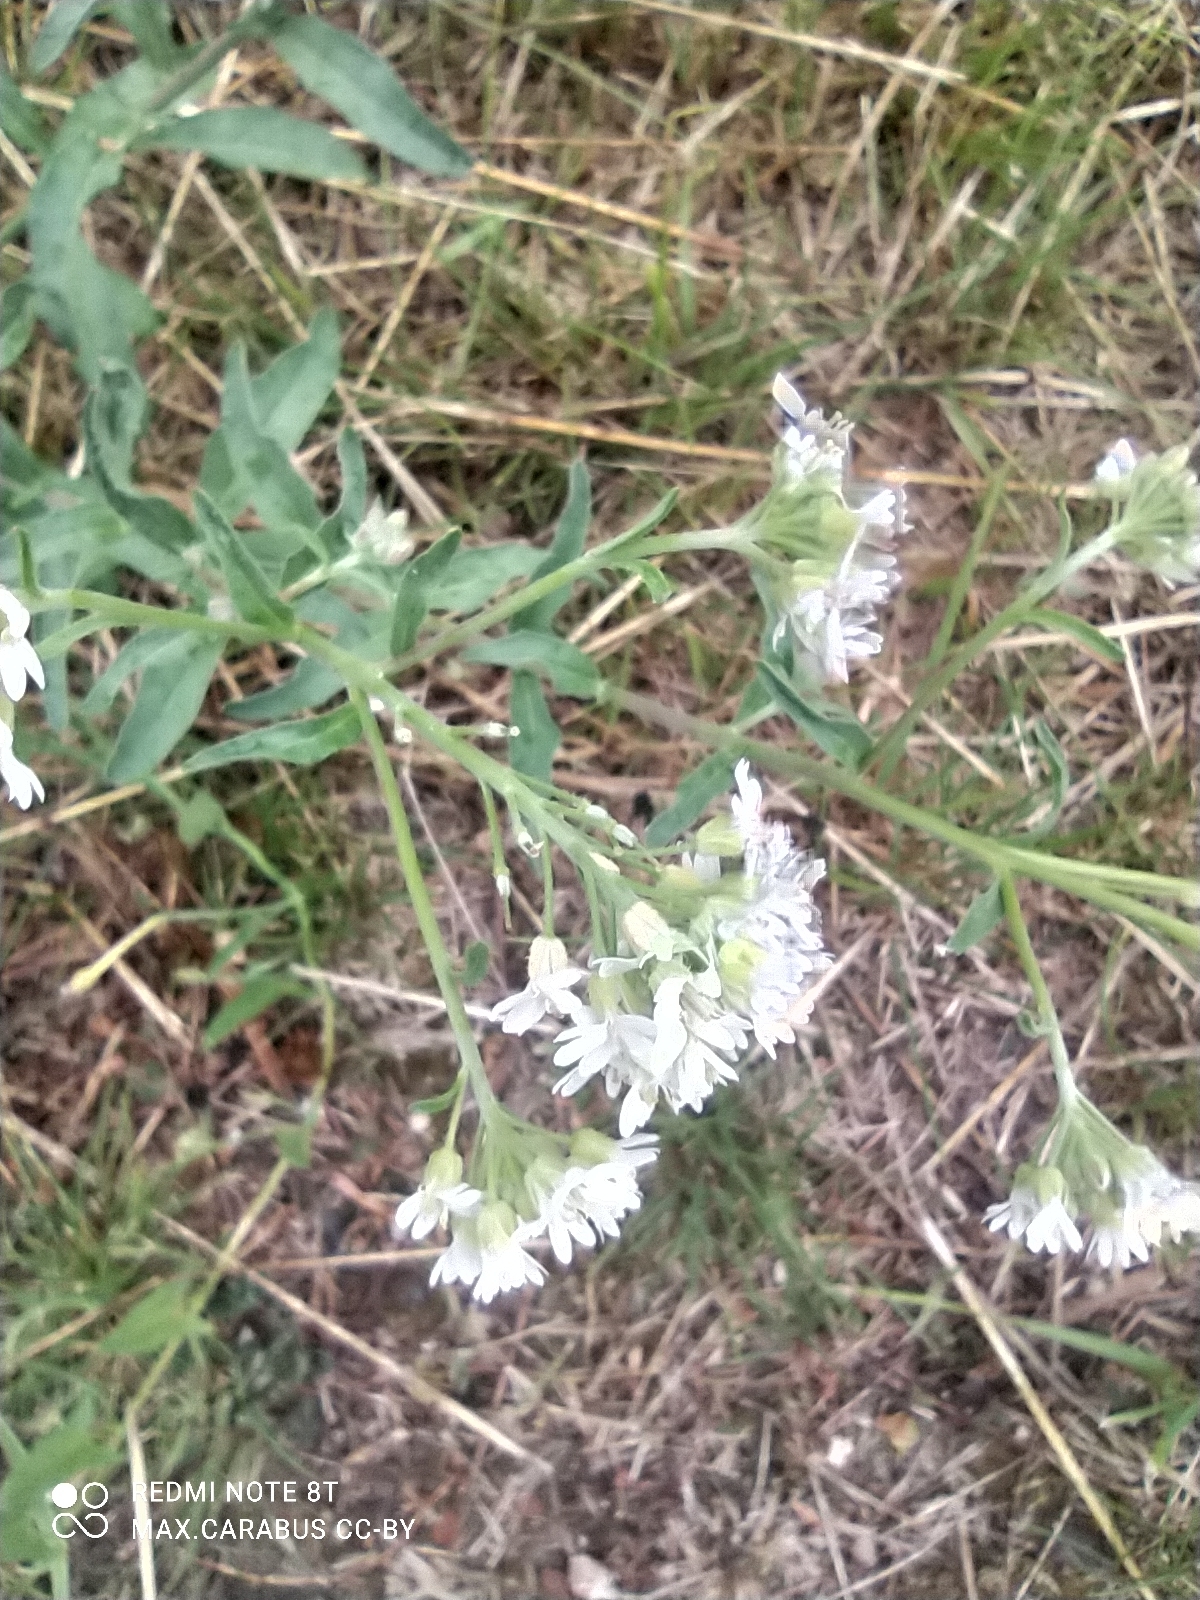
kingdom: Plantae
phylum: Tracheophyta
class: Magnoliopsida
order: Brassicales
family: Brassicaceae
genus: Berteroa
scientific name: Berteroa incana
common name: Hoary alison
